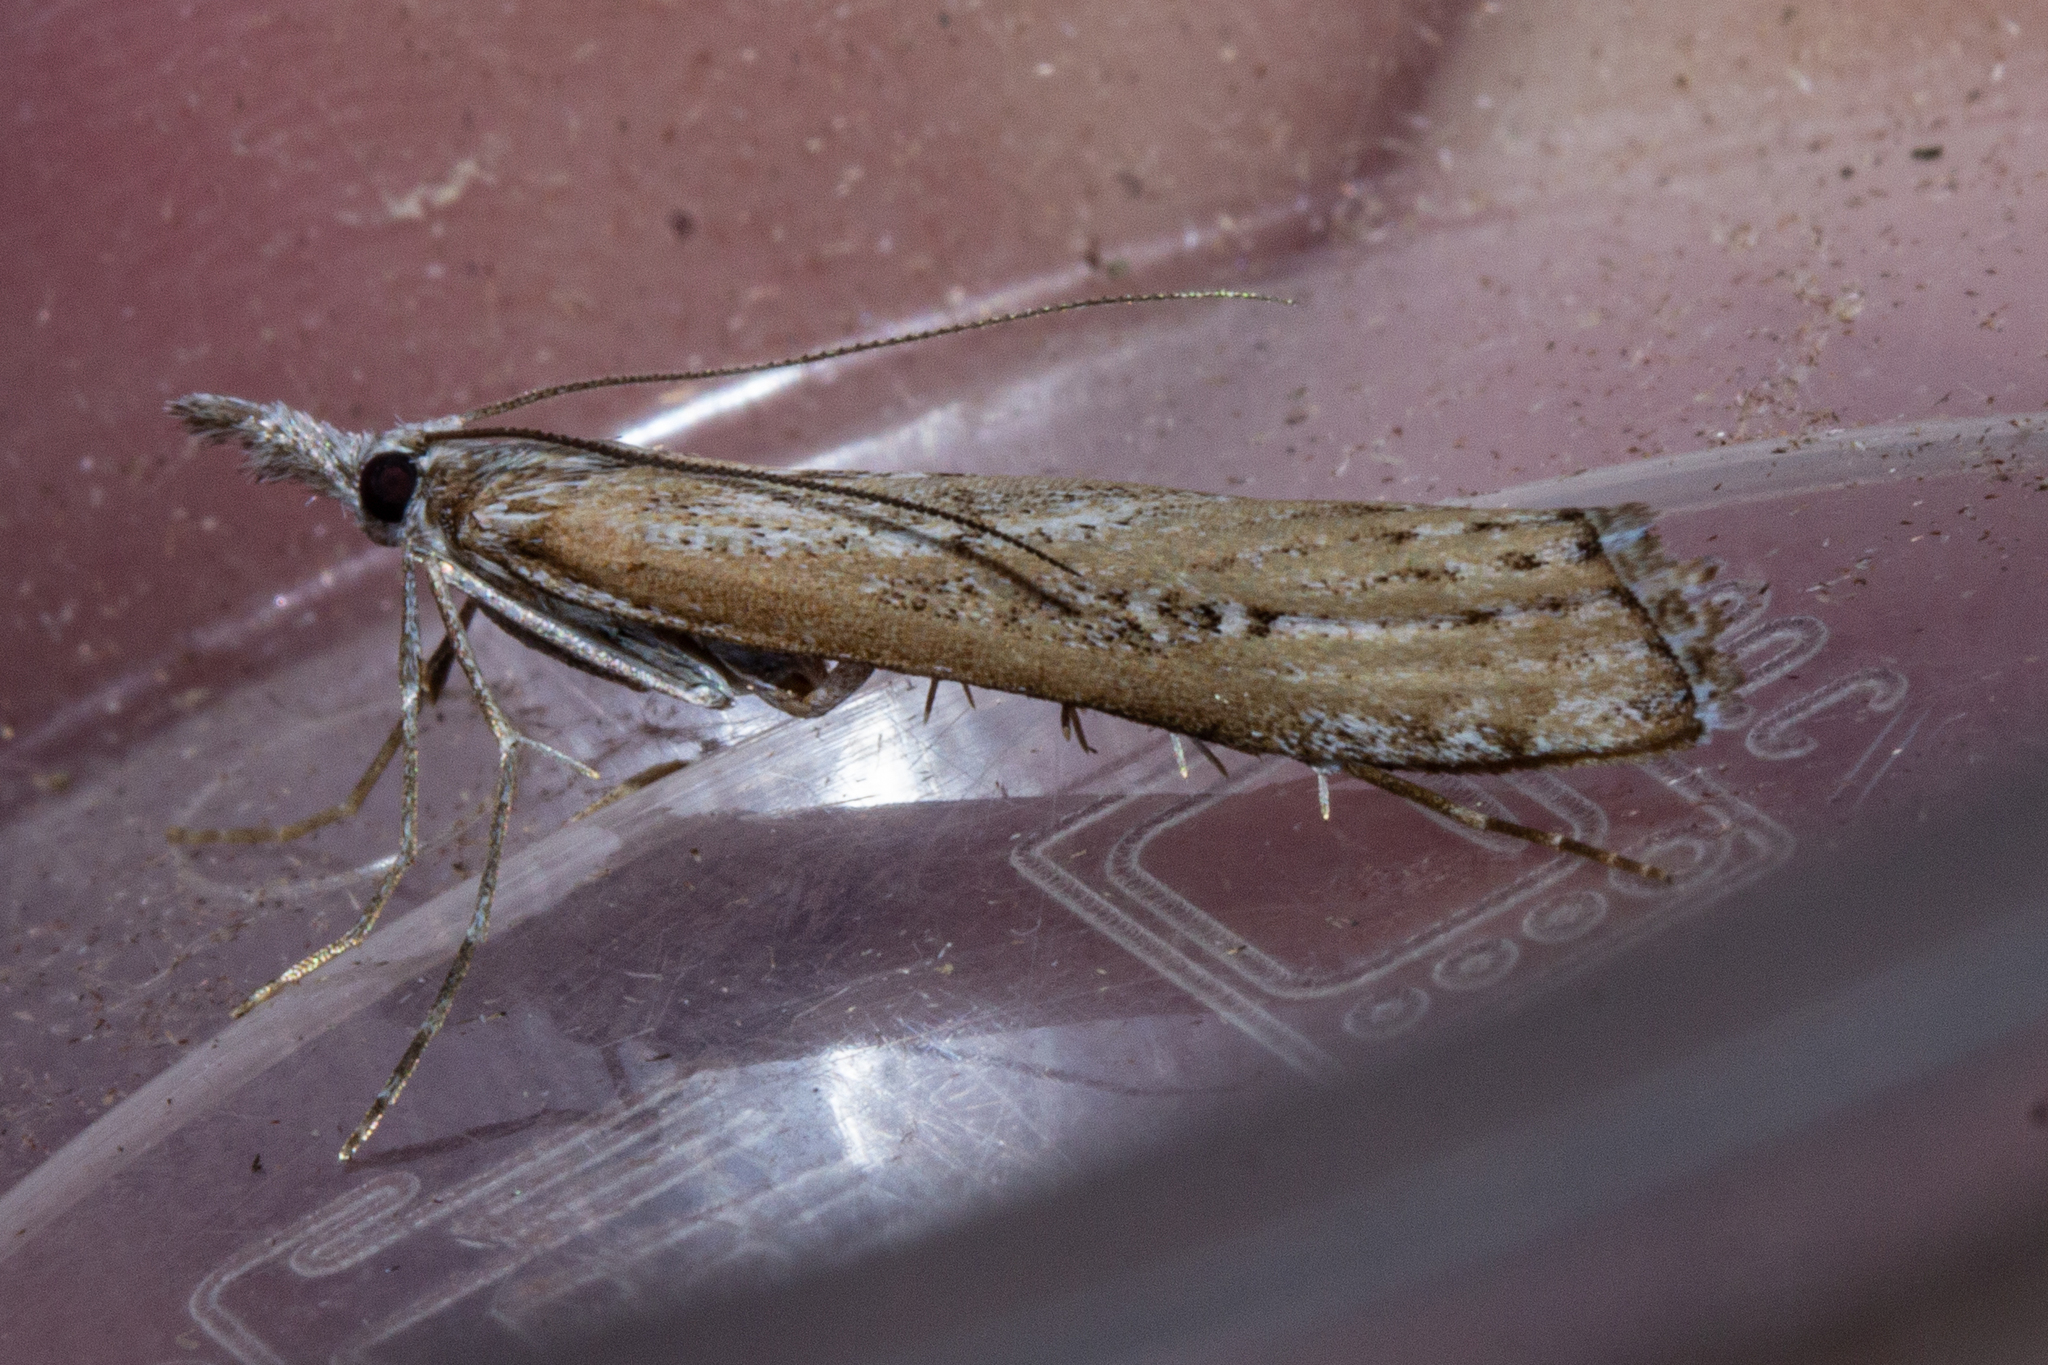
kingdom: Animalia
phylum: Arthropoda
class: Insecta
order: Lepidoptera
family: Crambidae
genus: Orocrambus
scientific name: Orocrambus cyclopicus
